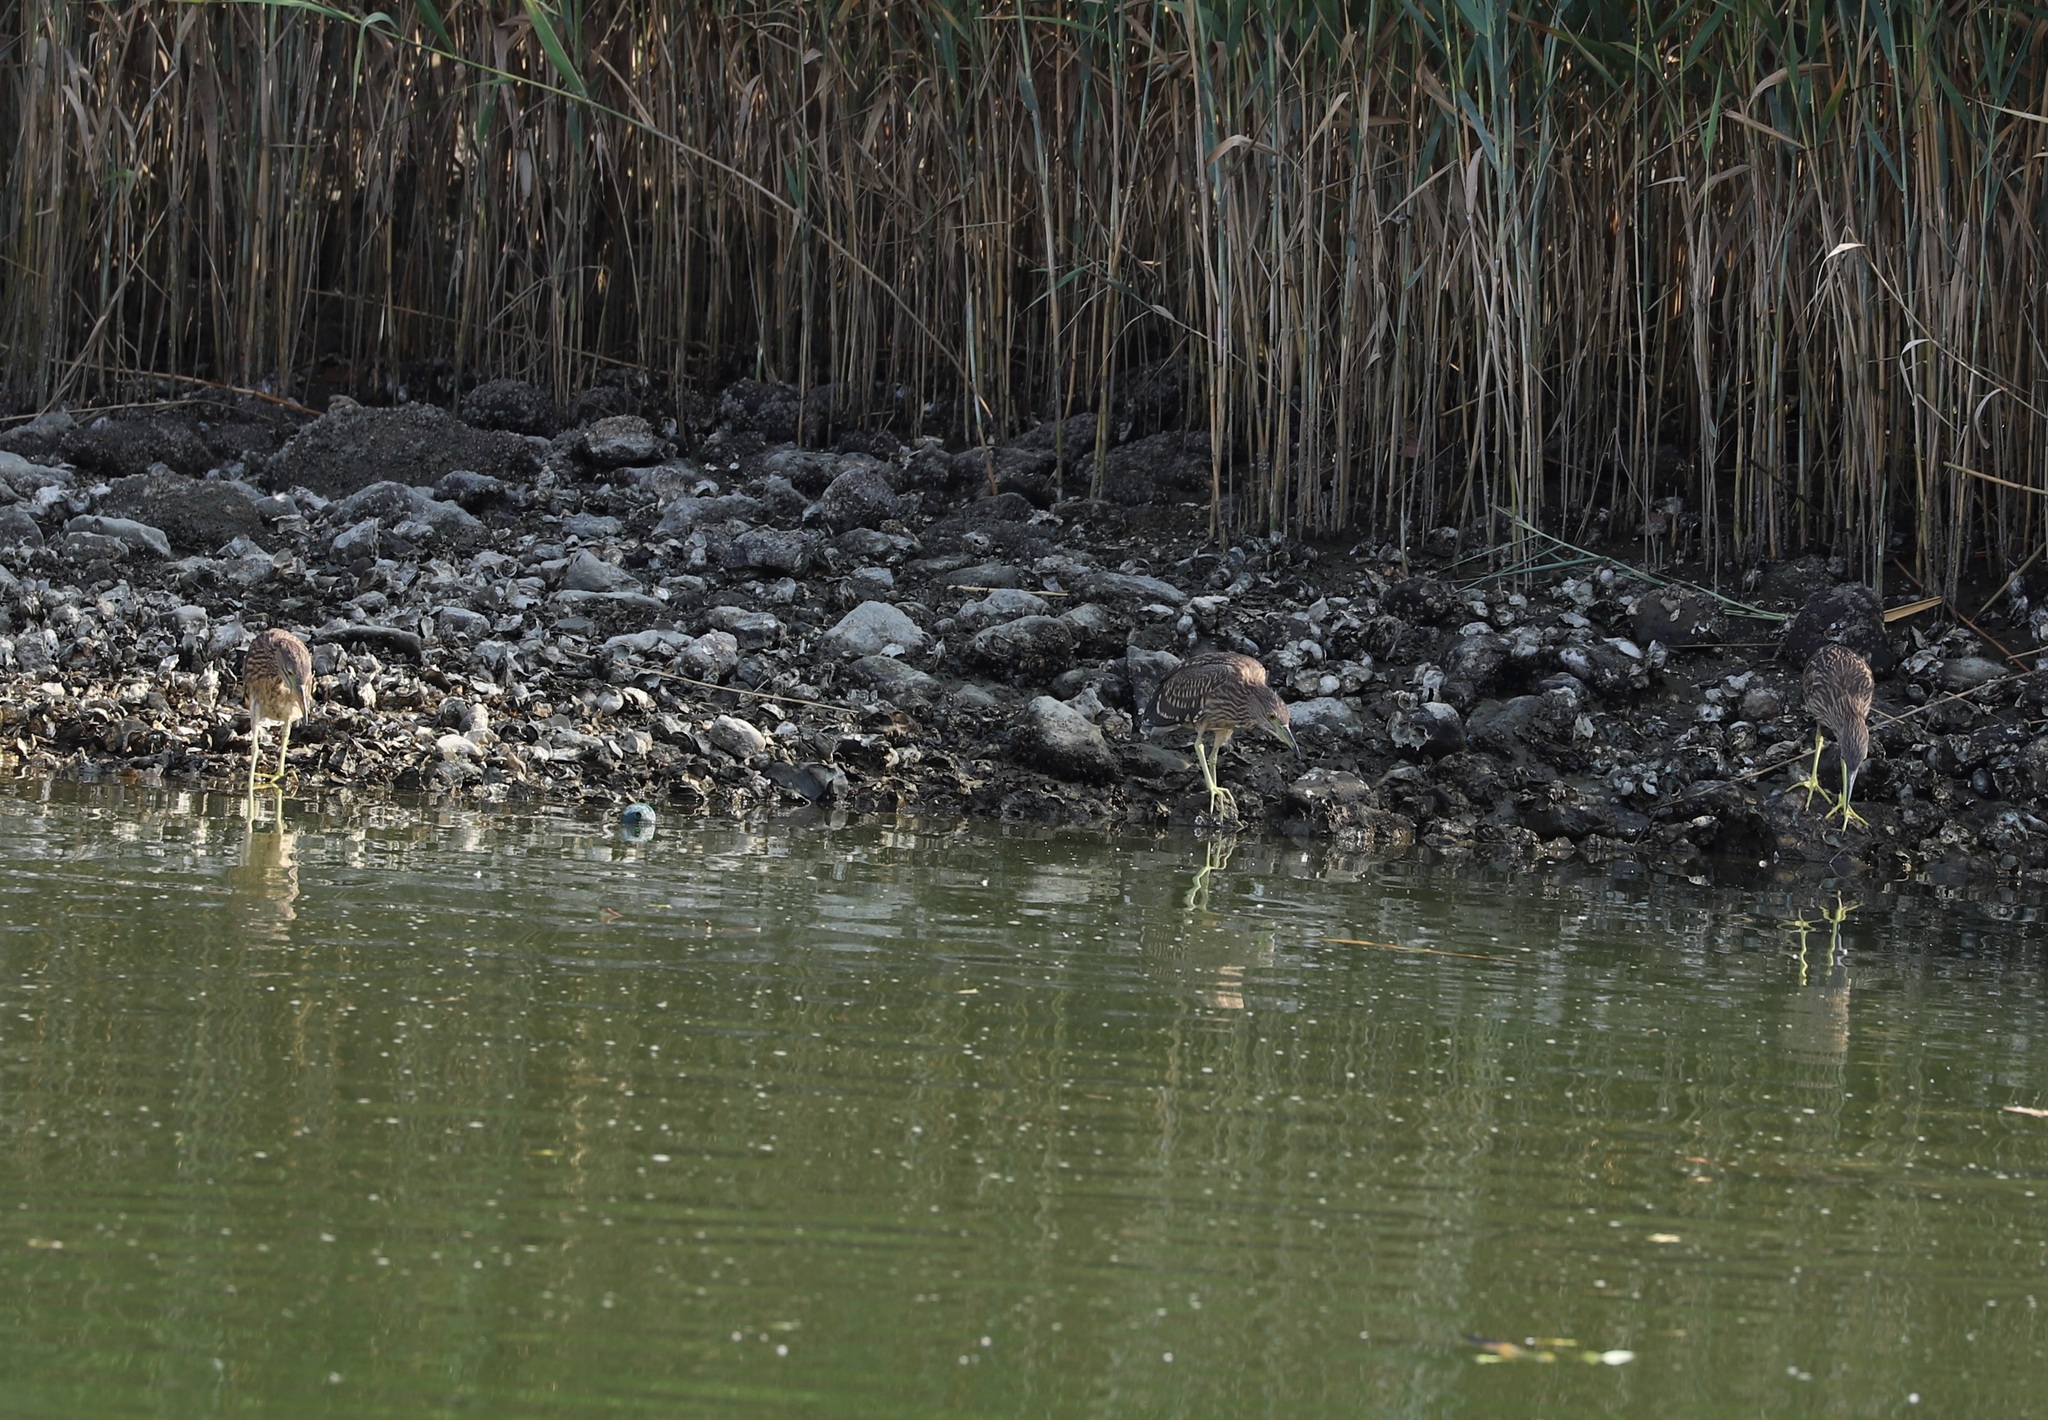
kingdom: Animalia
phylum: Chordata
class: Aves
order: Pelecaniformes
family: Ardeidae
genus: Nycticorax
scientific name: Nycticorax nycticorax
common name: Black-crowned night heron
